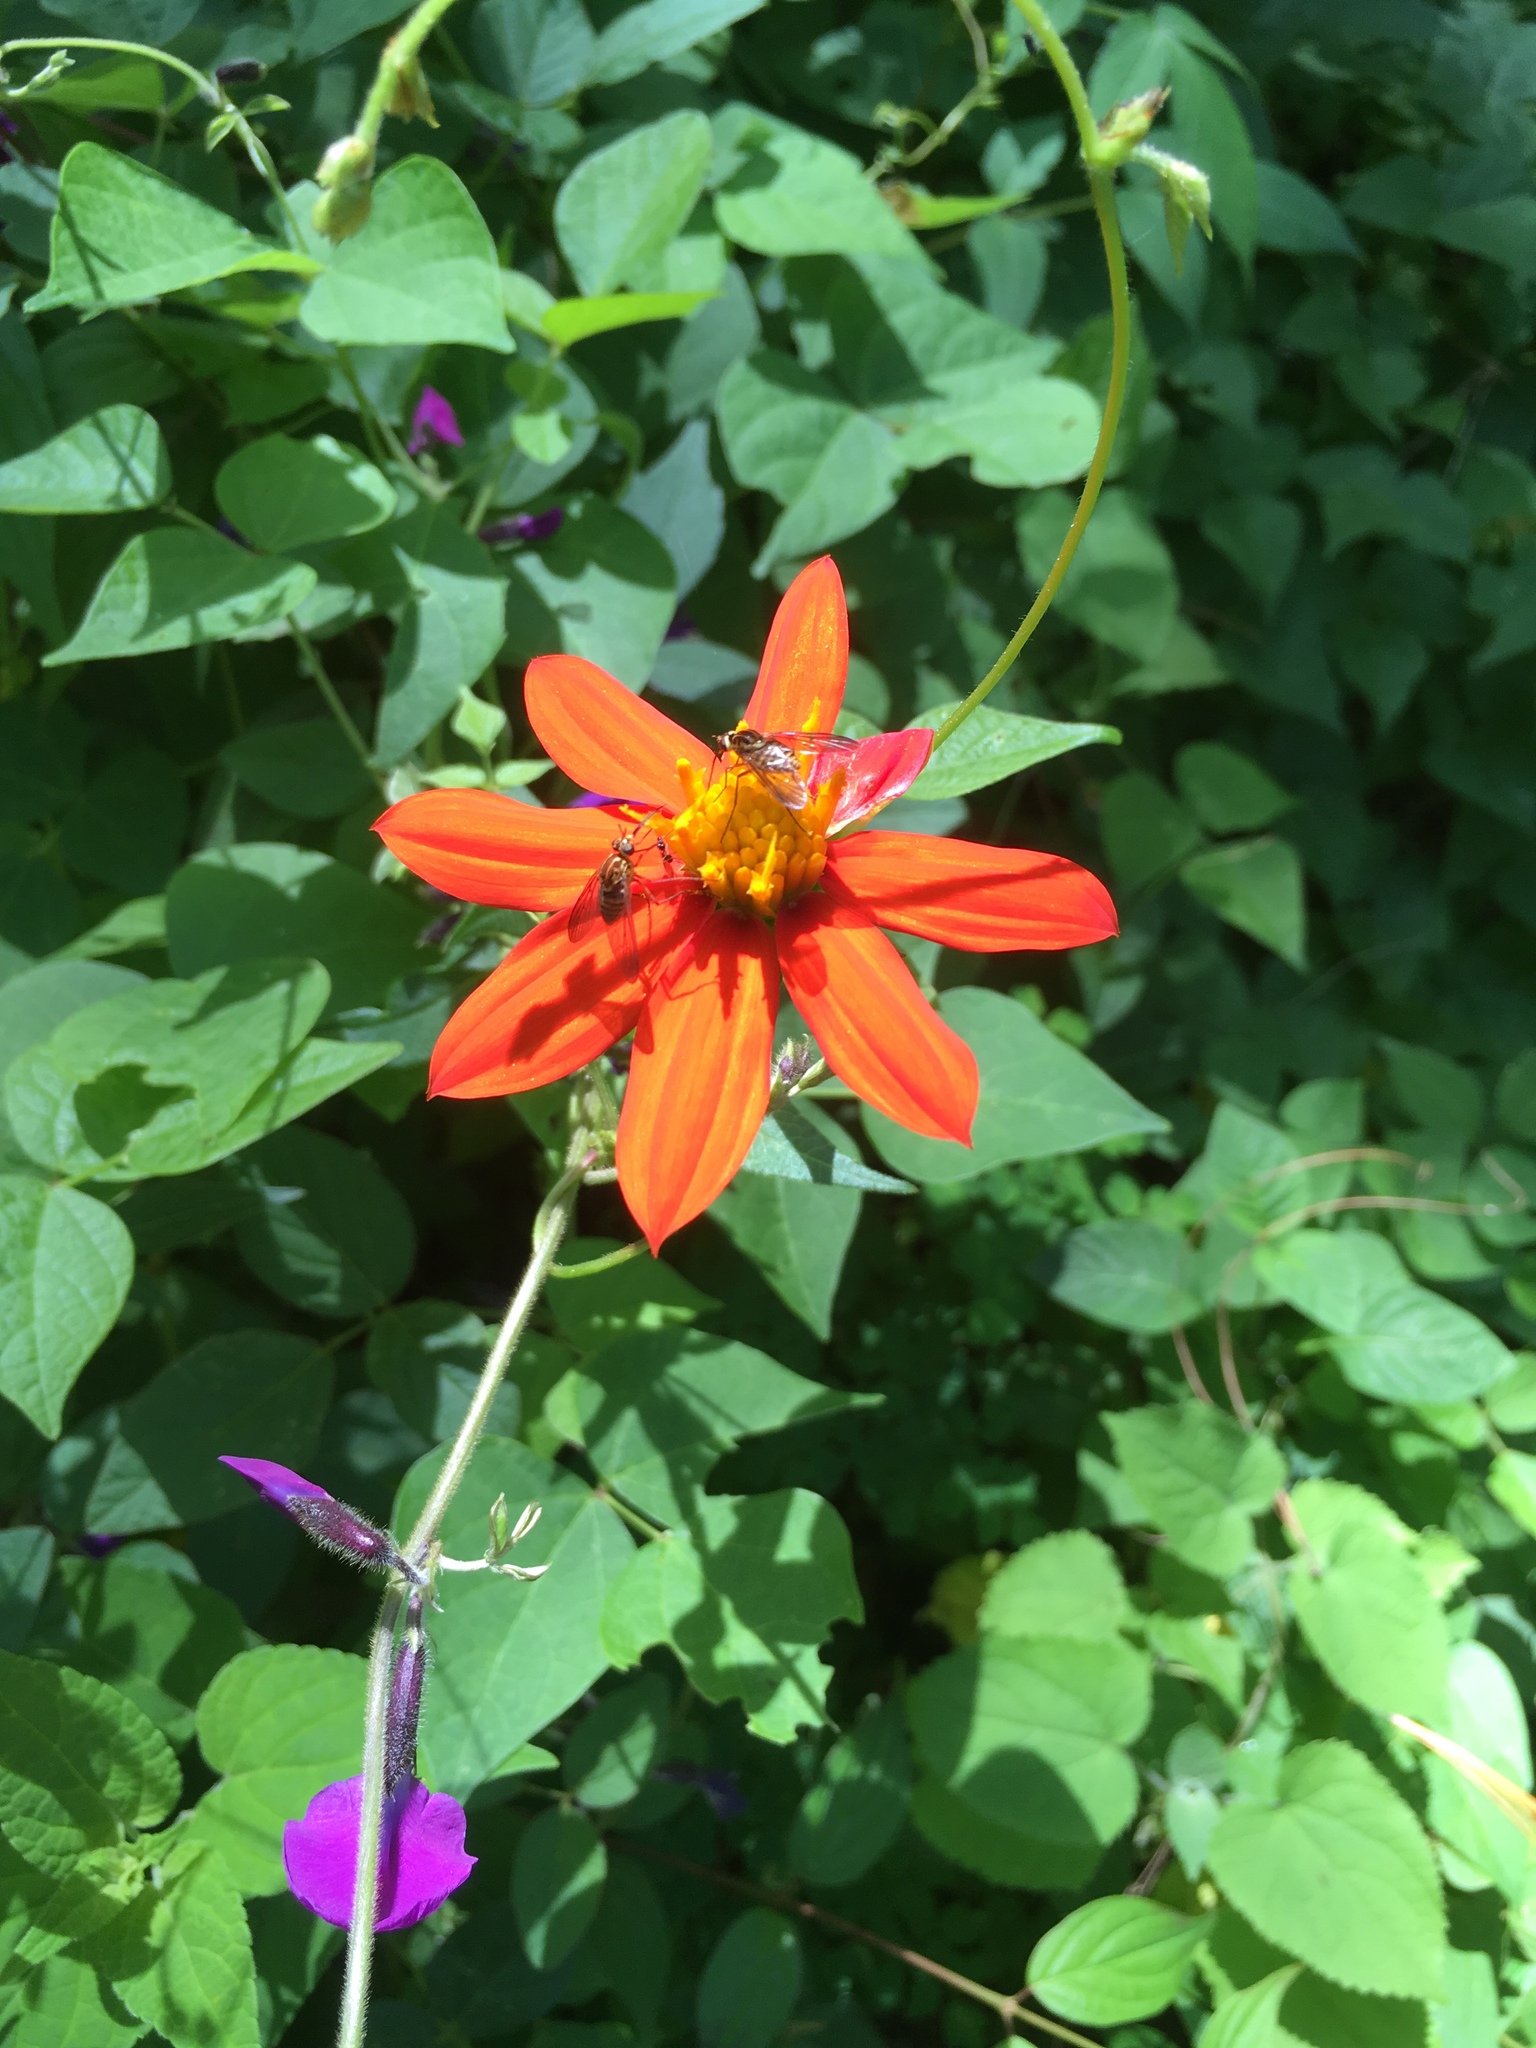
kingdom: Plantae
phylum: Tracheophyta
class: Magnoliopsida
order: Asterales
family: Asteraceae
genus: Dahlia
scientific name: Dahlia coccinea
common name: Red dahlia
